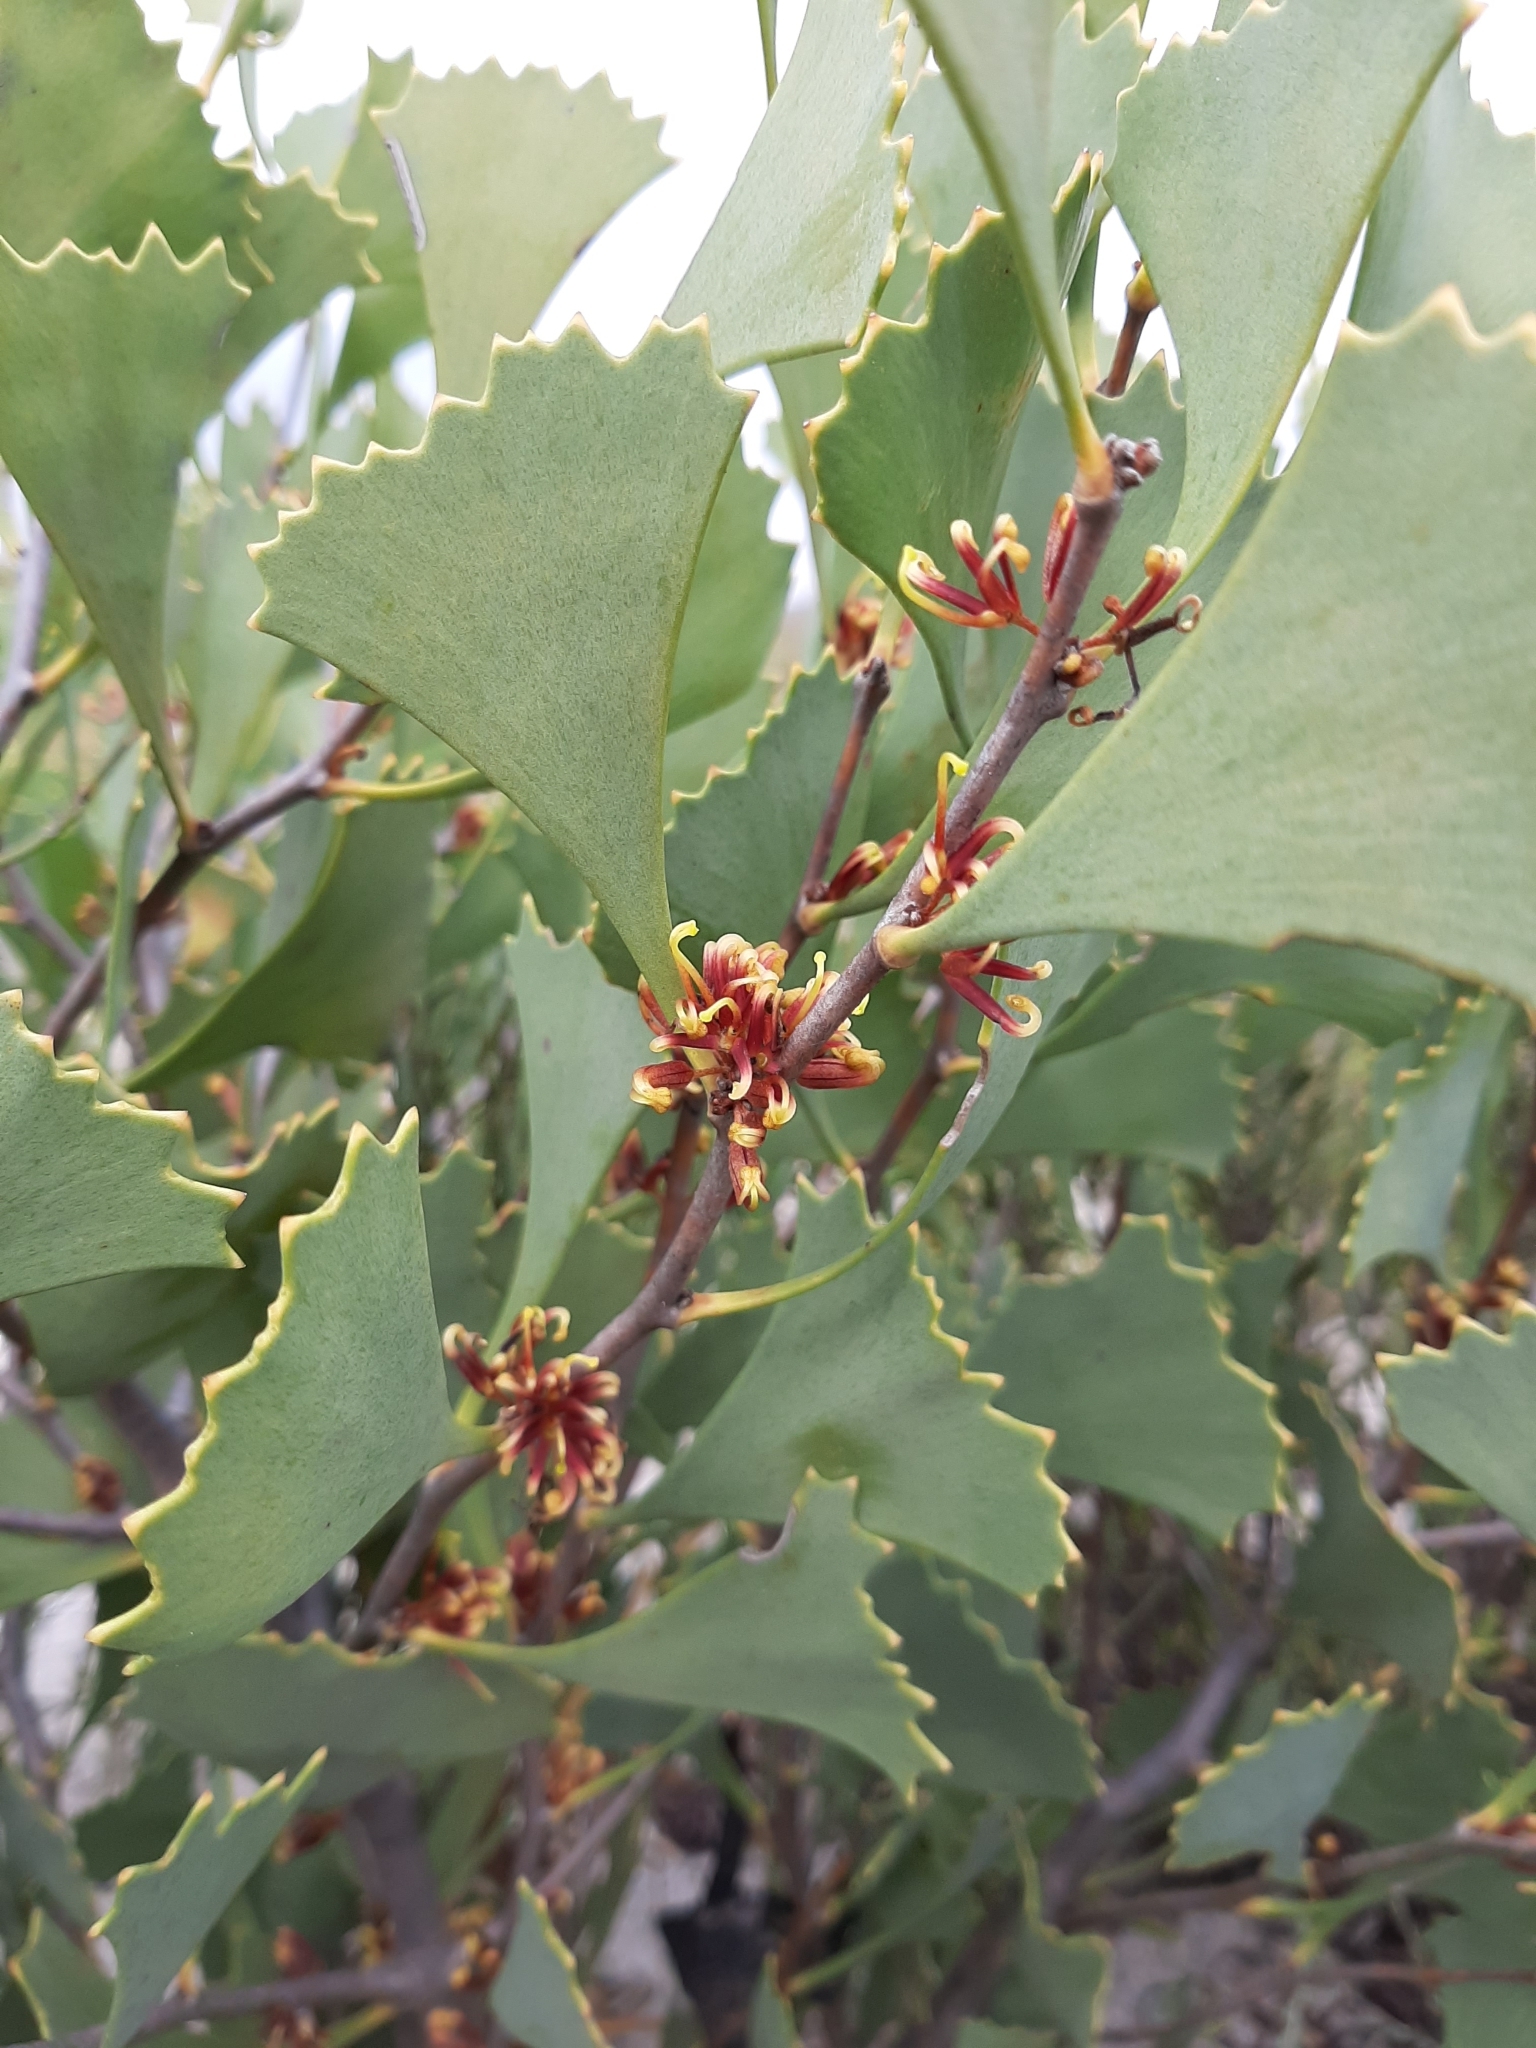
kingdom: Plantae
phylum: Tracheophyta
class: Magnoliopsida
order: Proteales
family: Proteaceae
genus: Hakea
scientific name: Hakea flabellifolia
